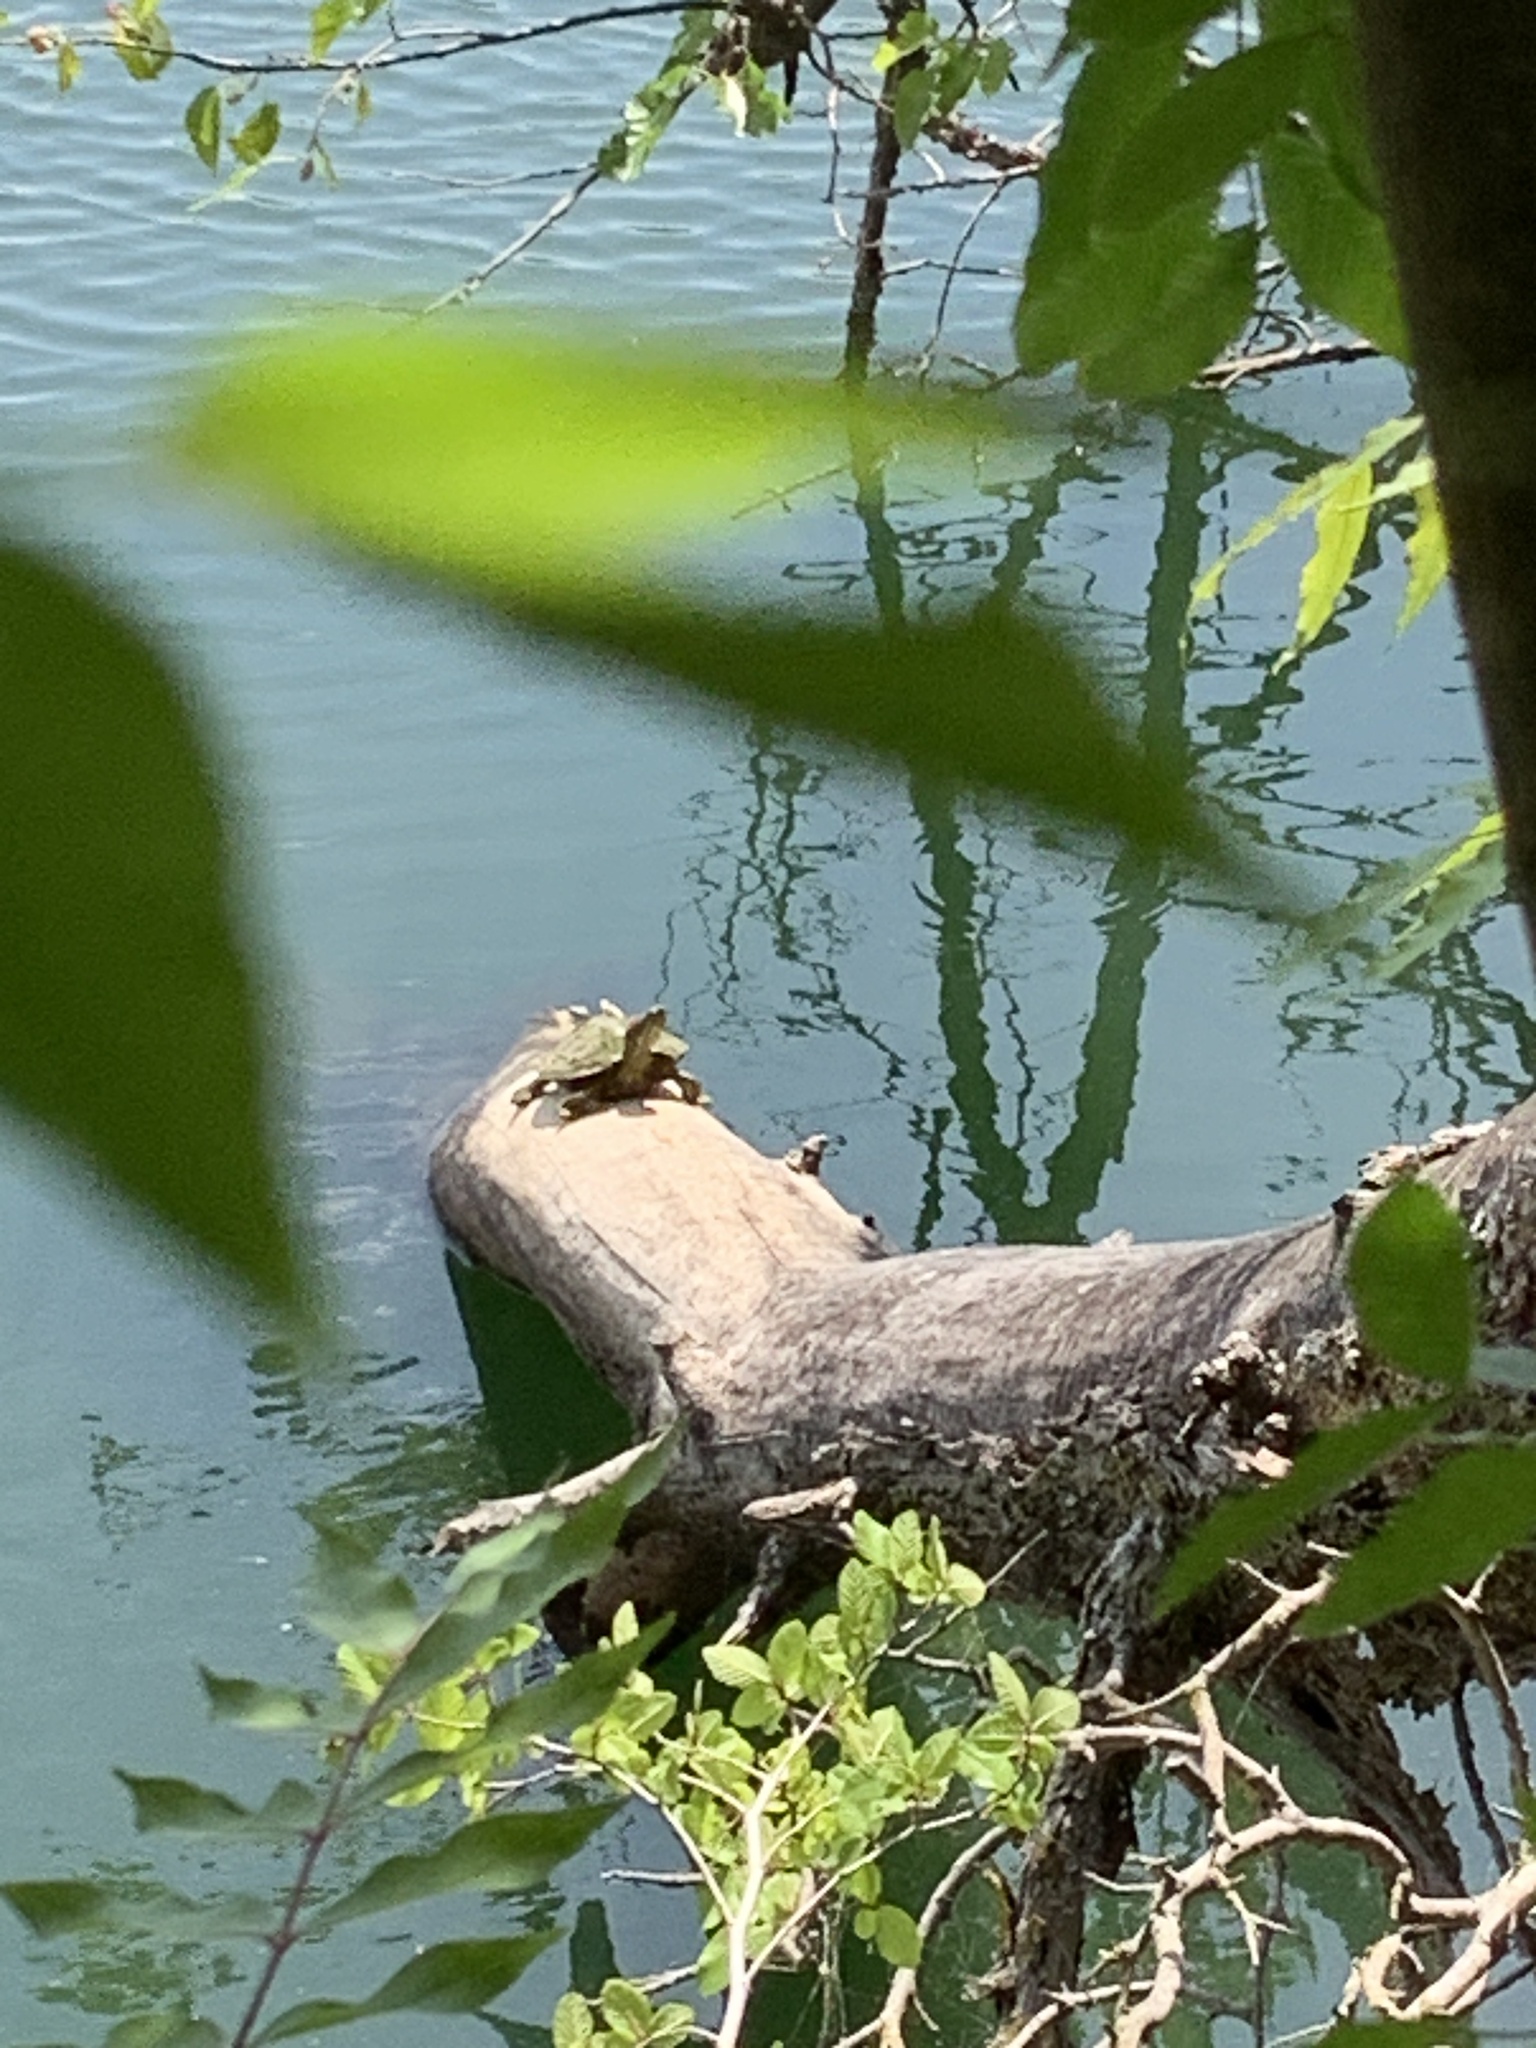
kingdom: Animalia
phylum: Chordata
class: Testudines
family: Emydidae
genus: Trachemys
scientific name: Trachemys scripta
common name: Slider
